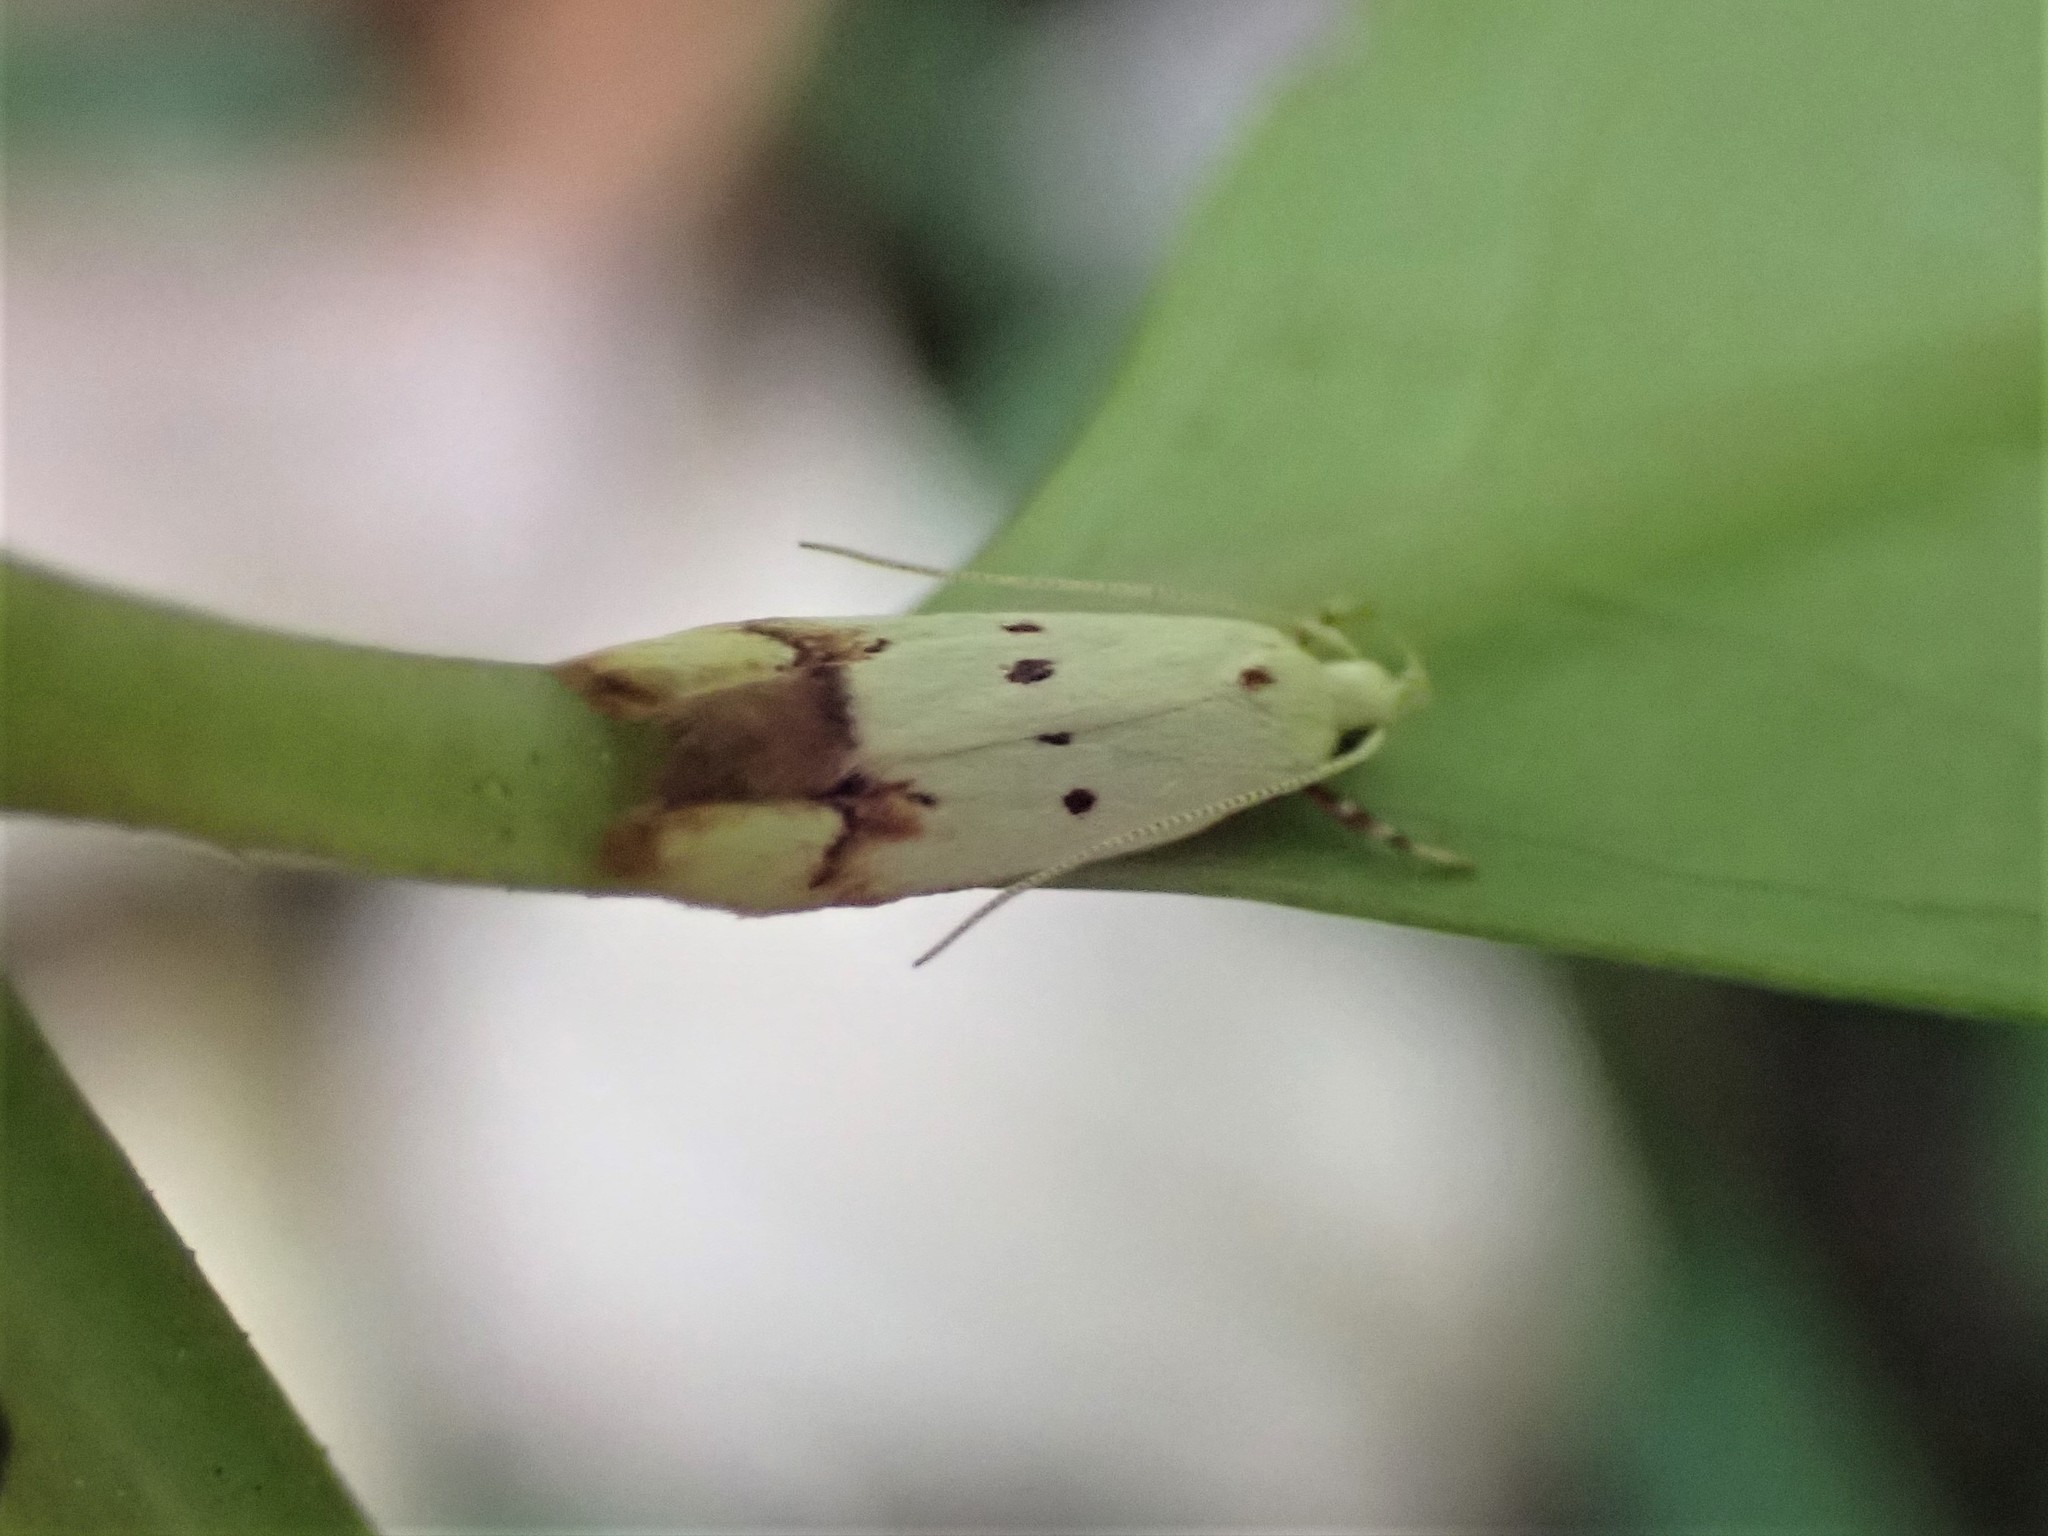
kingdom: Animalia
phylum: Arthropoda
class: Insecta
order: Lepidoptera
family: Oecophoridae
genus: Gymnobathra
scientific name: Gymnobathra flavidella
